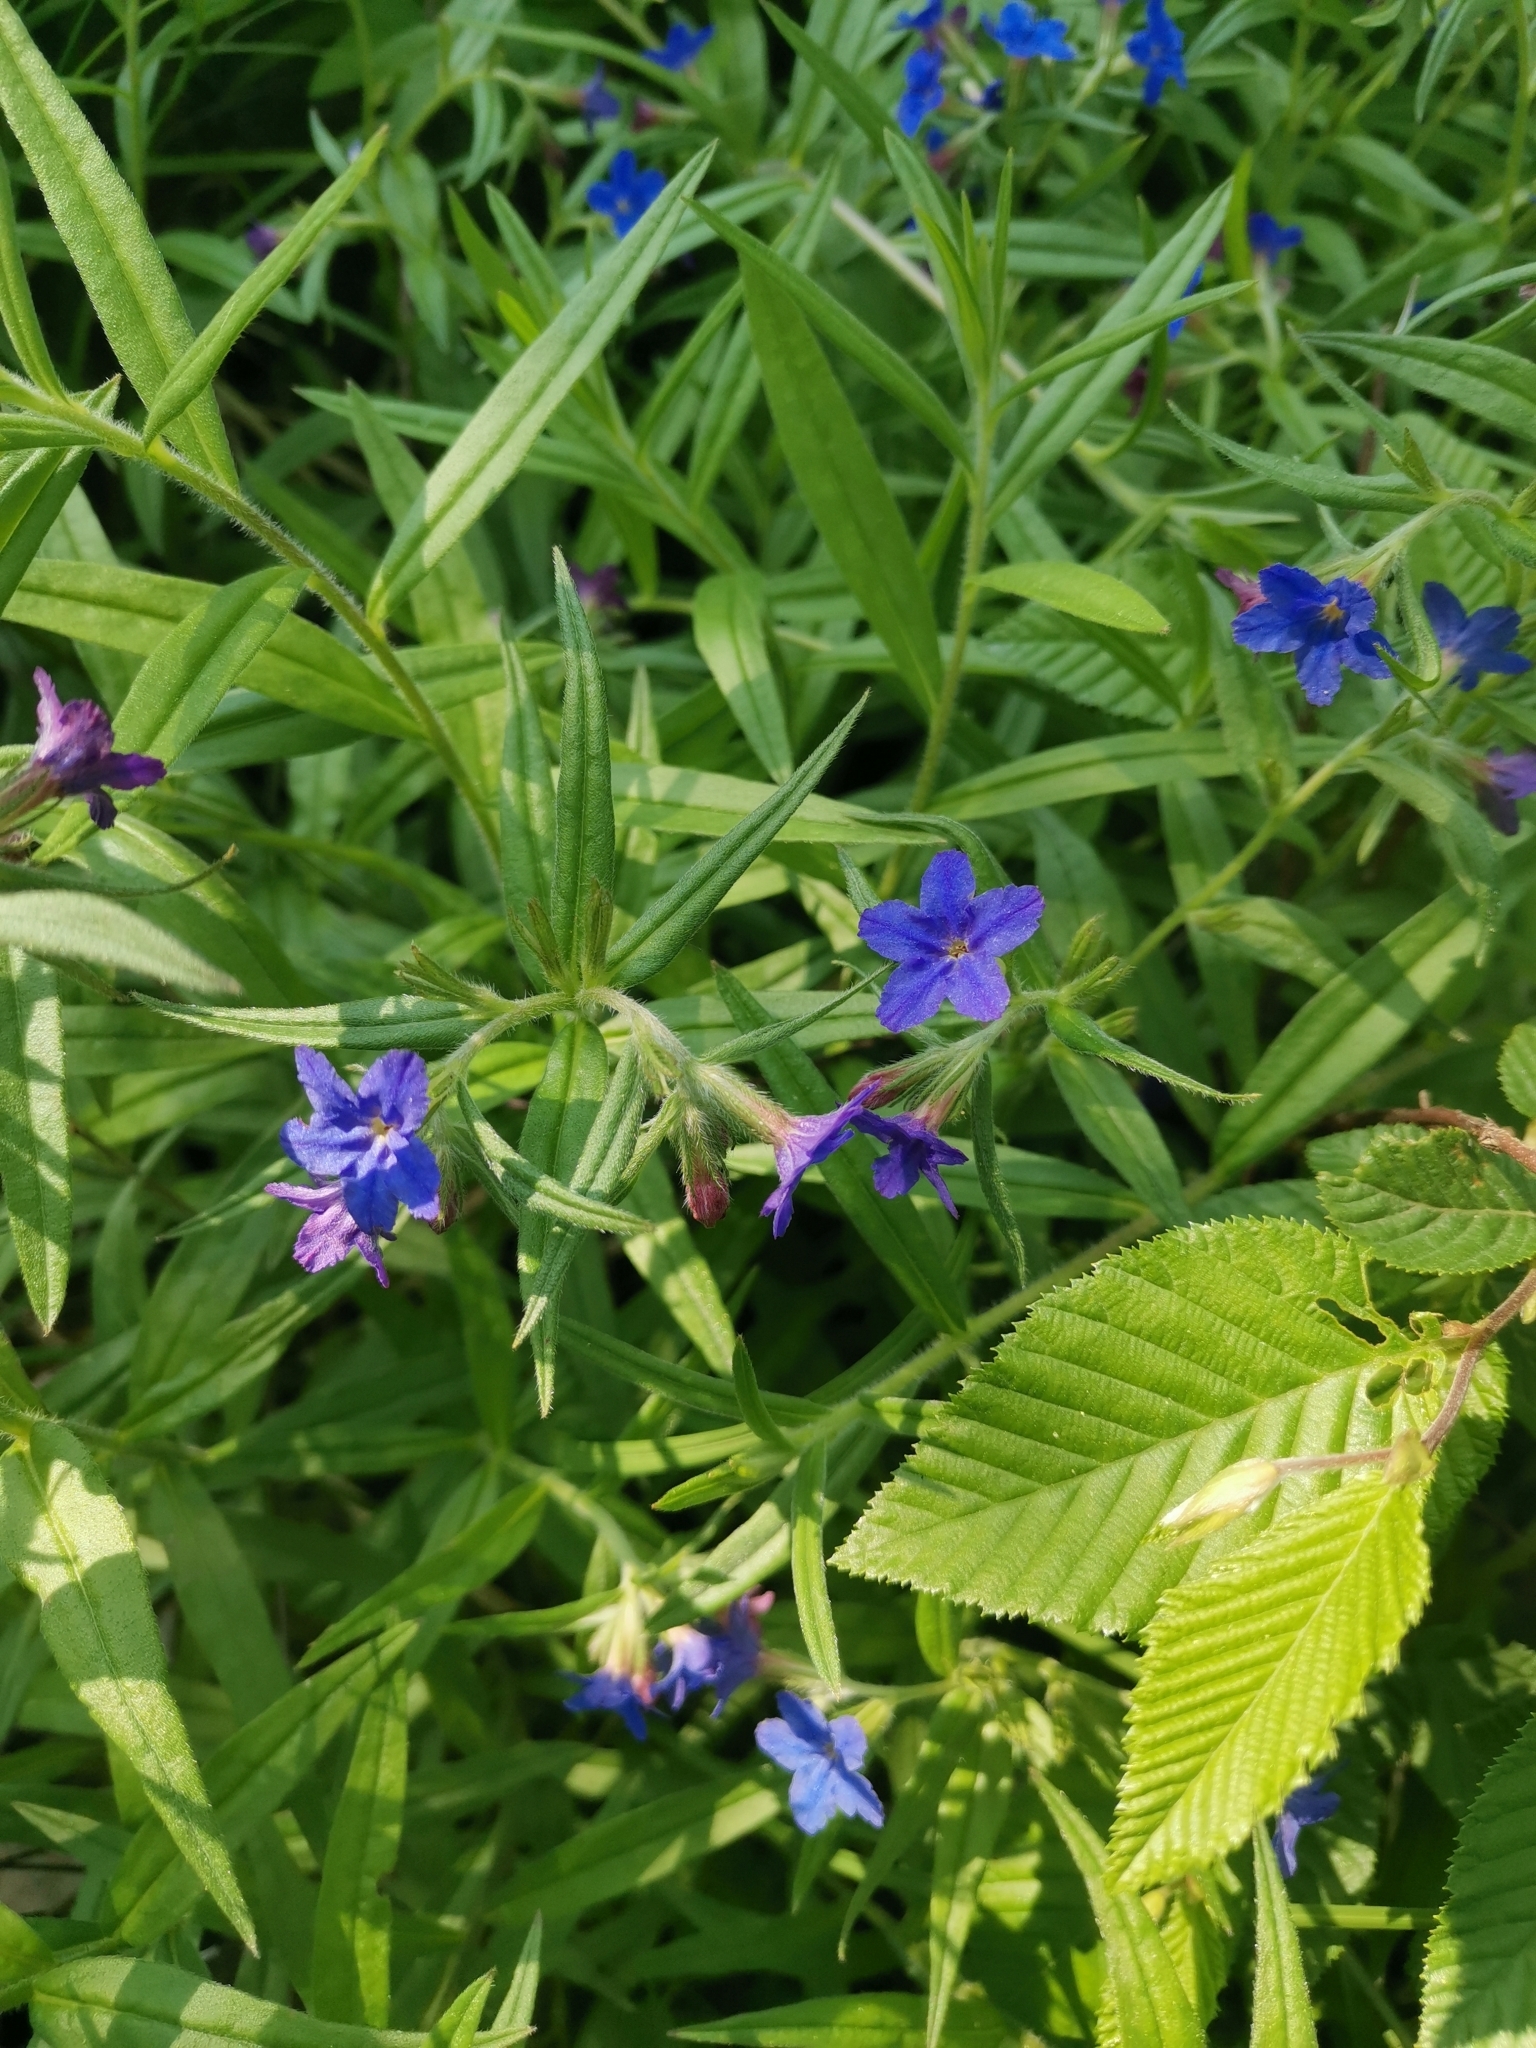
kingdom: Plantae
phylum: Tracheophyta
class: Magnoliopsida
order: Boraginales
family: Boraginaceae
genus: Aegonychon
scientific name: Aegonychon purpurocaeruleum
